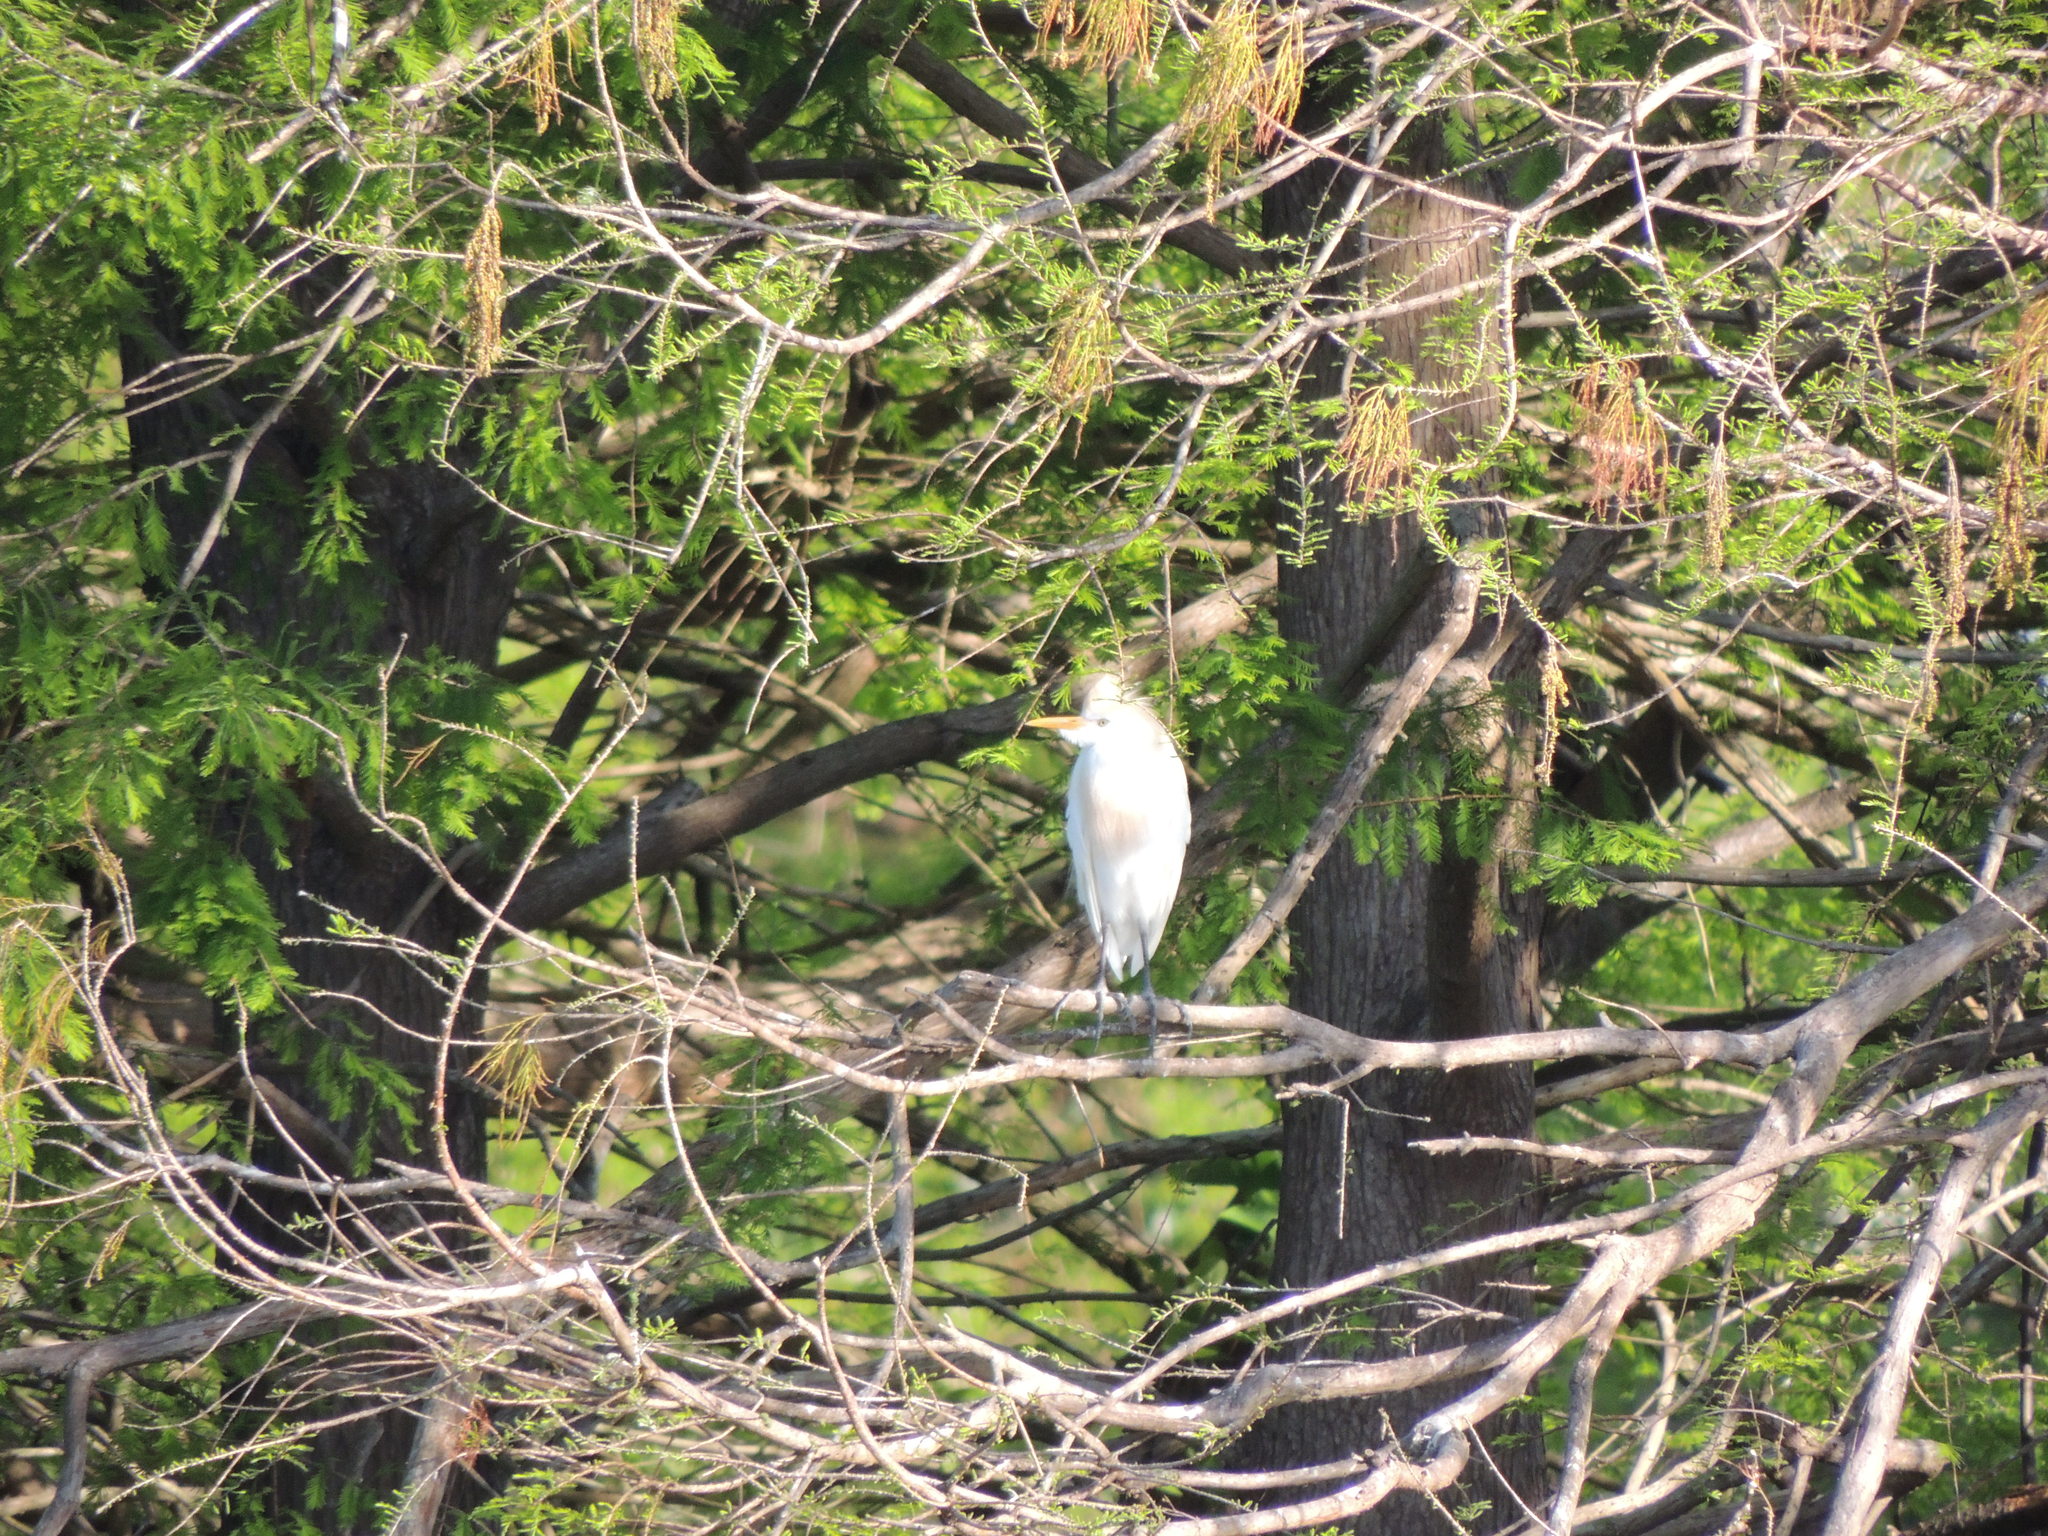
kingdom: Animalia
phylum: Chordata
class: Aves
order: Pelecaniformes
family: Ardeidae
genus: Bubulcus
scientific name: Bubulcus ibis
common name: Cattle egret
